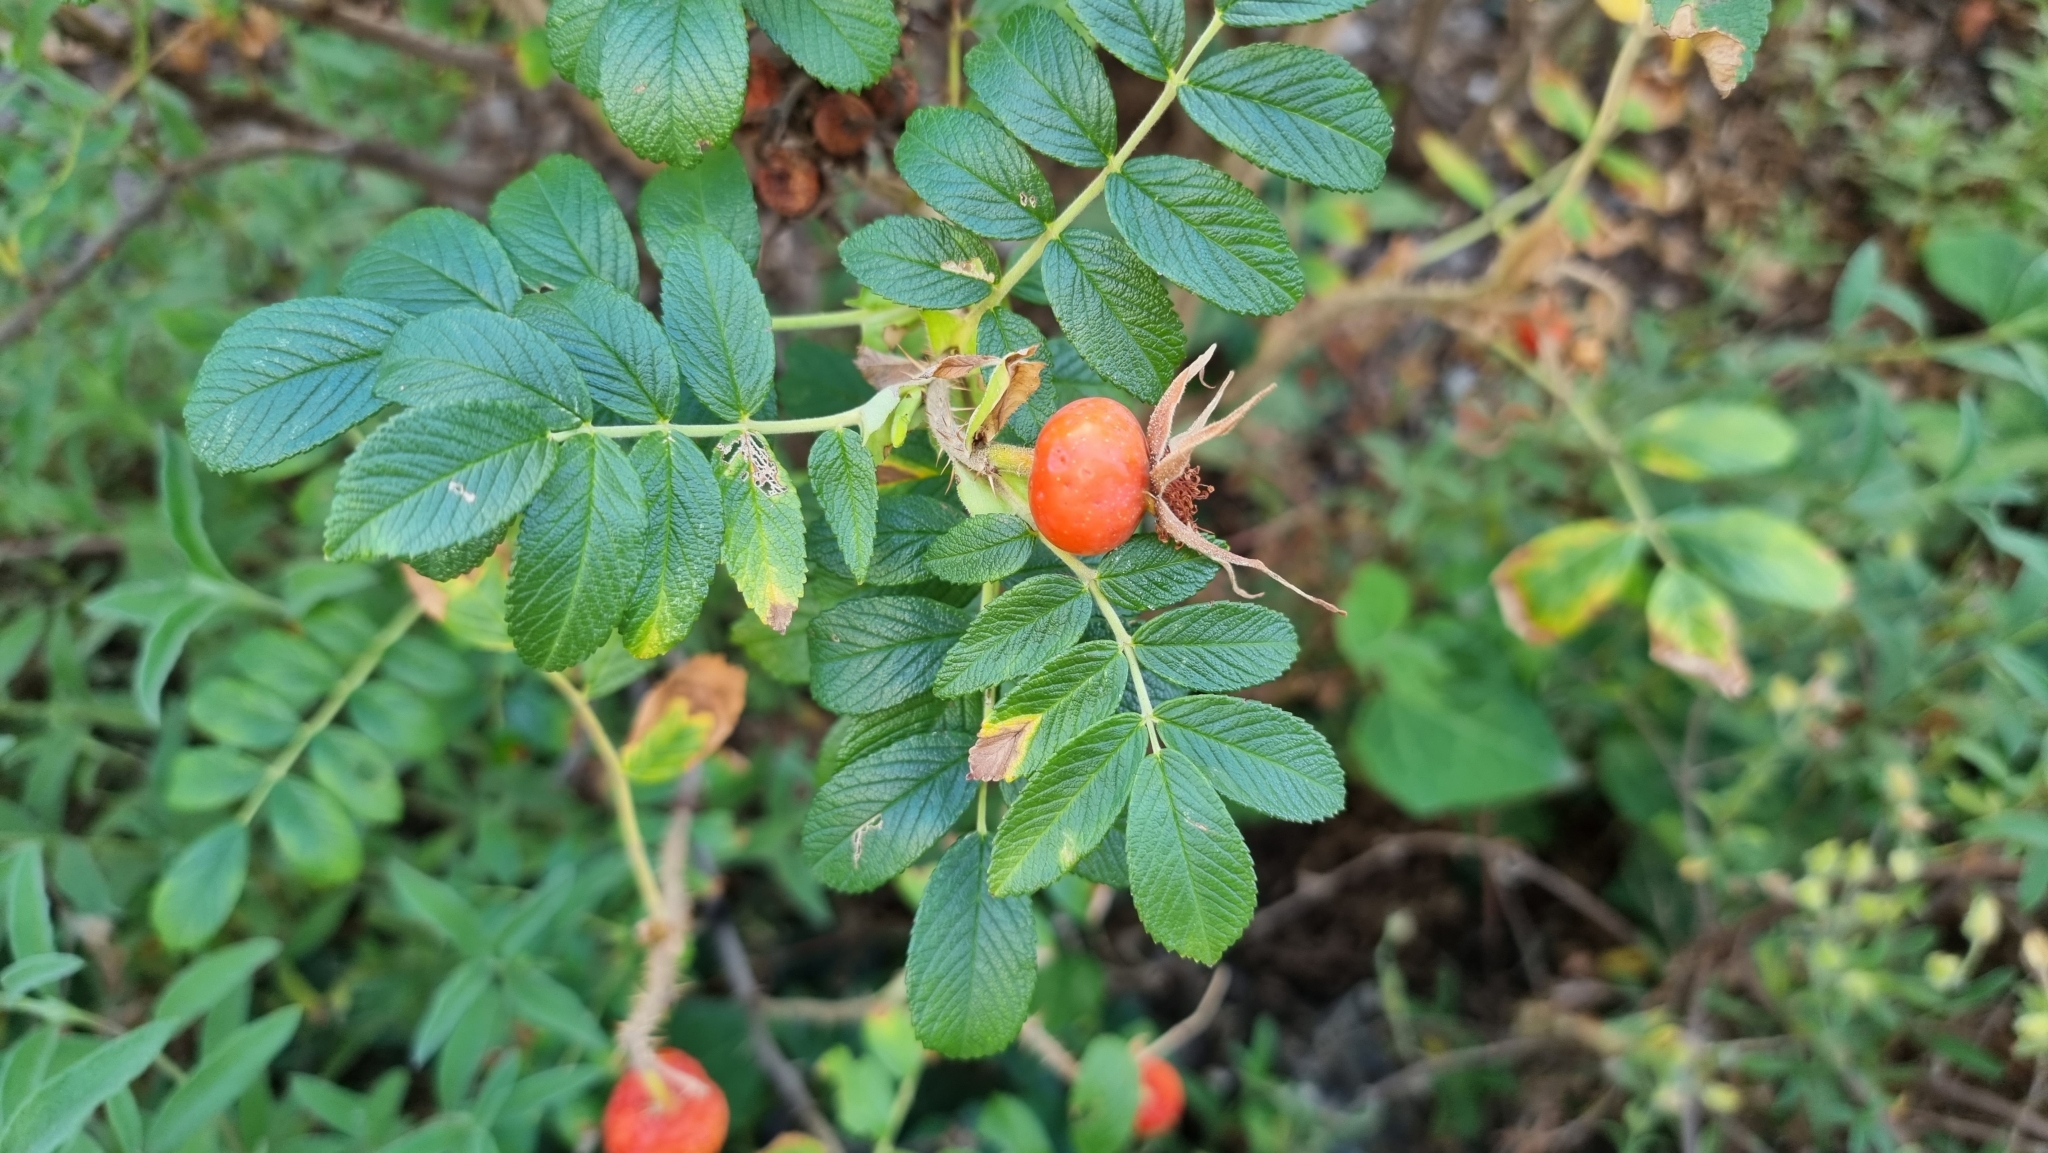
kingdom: Plantae
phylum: Tracheophyta
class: Magnoliopsida
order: Rosales
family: Rosaceae
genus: Rosa
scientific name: Rosa rugosa
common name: Japanese rose
